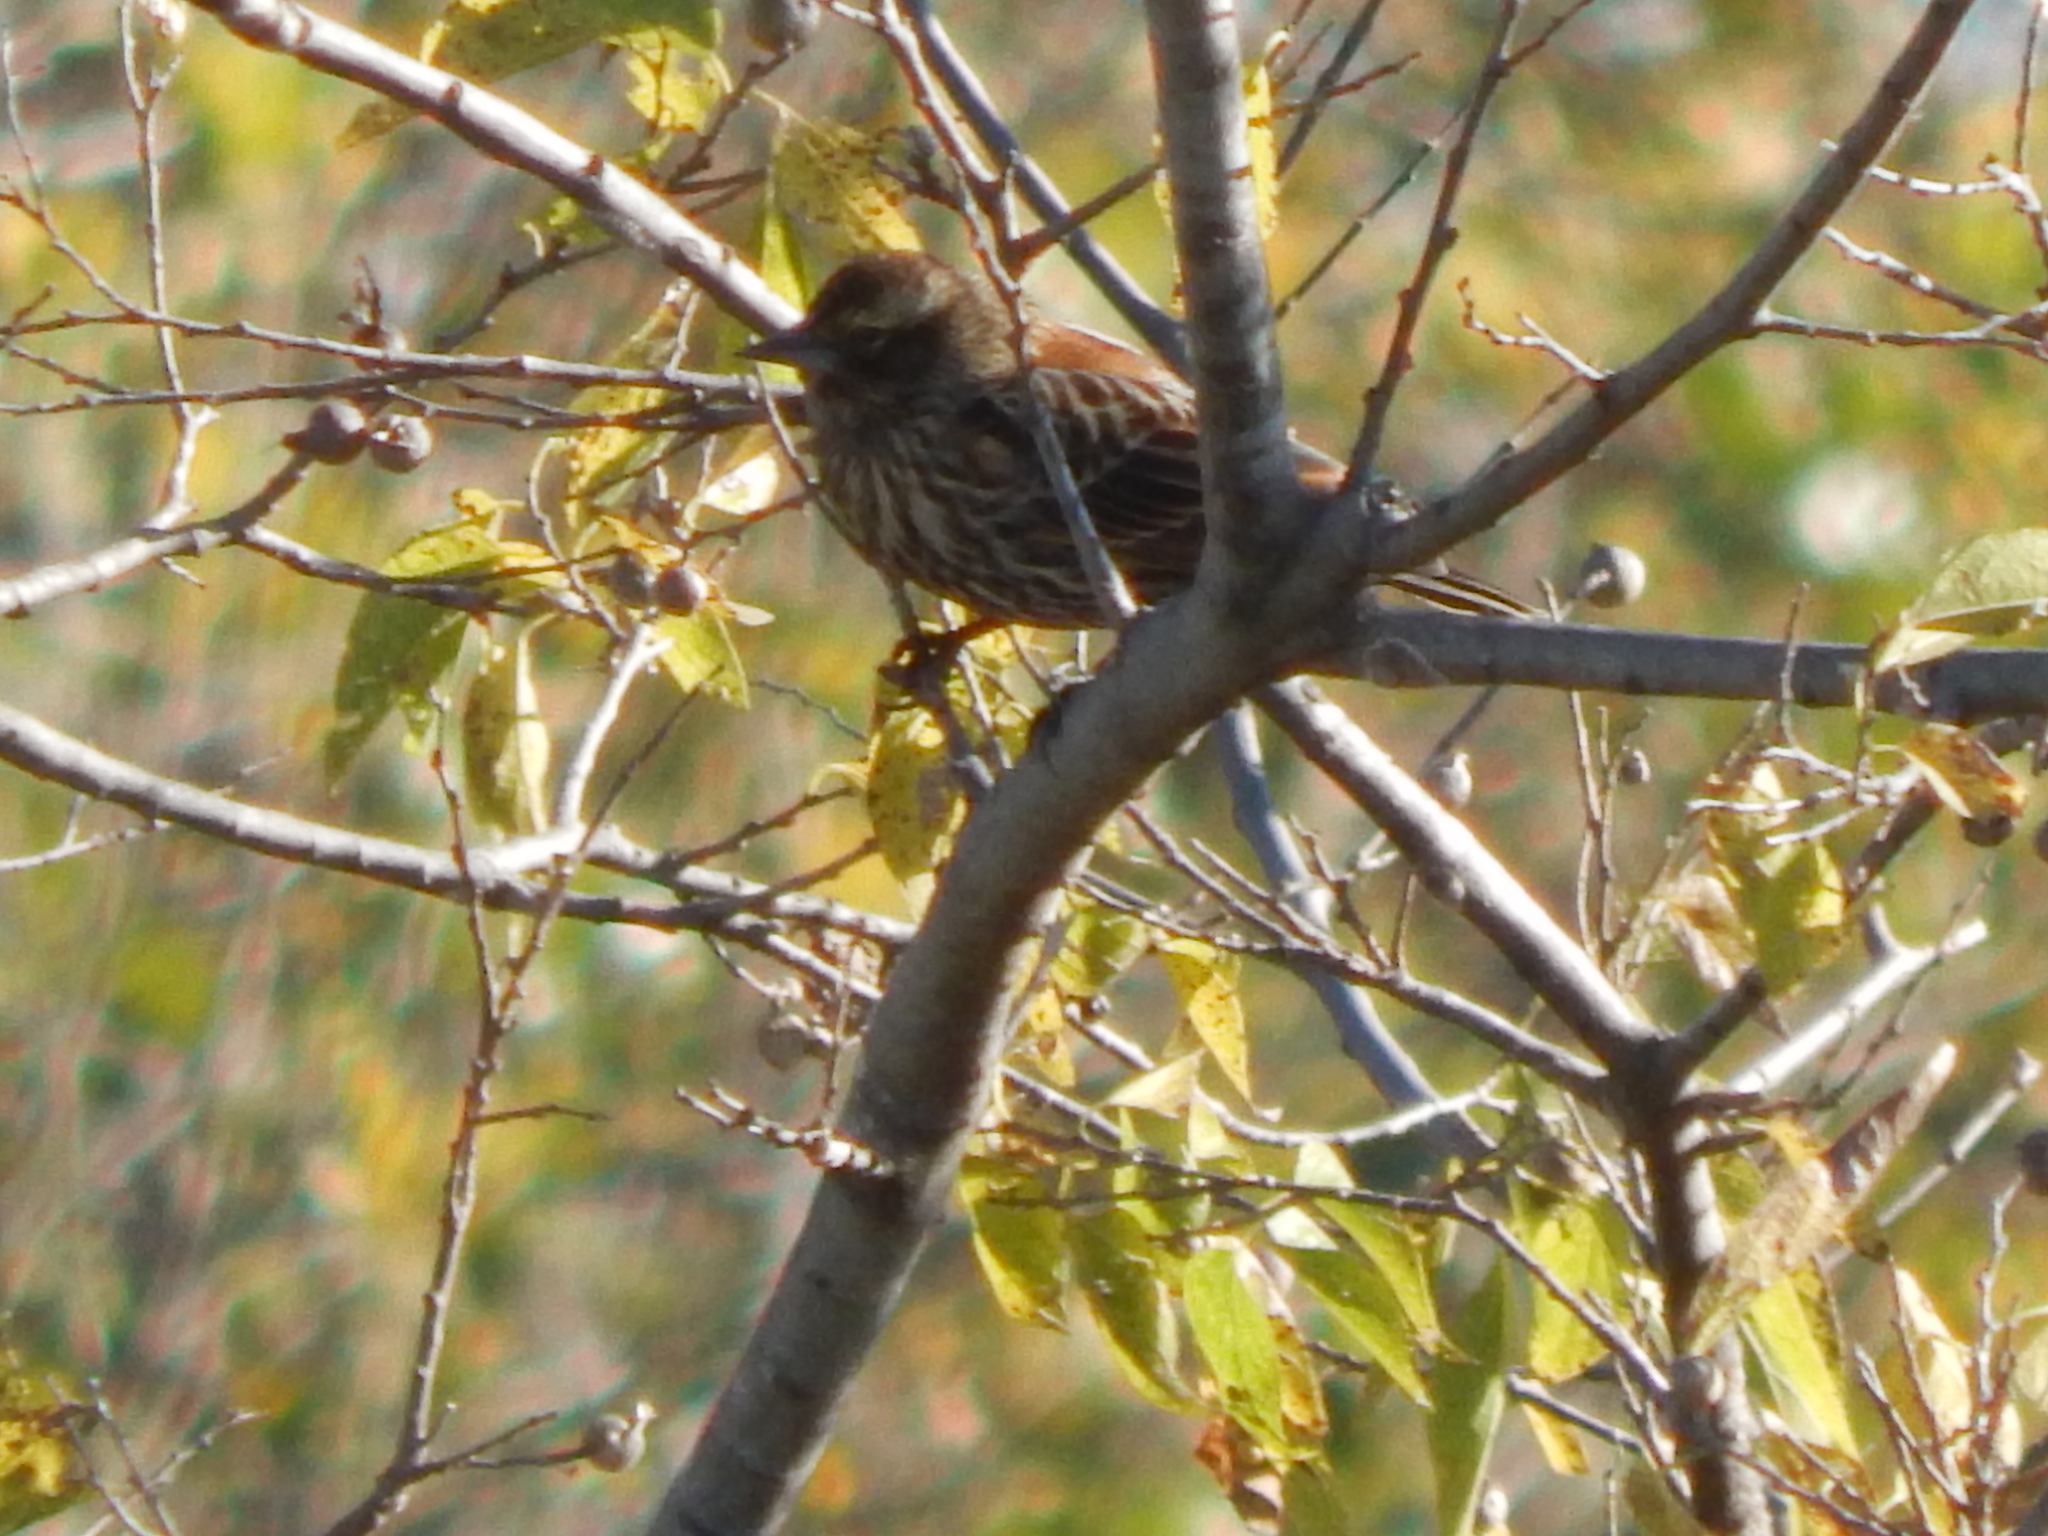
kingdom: Animalia
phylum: Chordata
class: Aves
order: Passeriformes
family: Icteridae
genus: Agelaius
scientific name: Agelaius phoeniceus
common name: Red-winged blackbird
